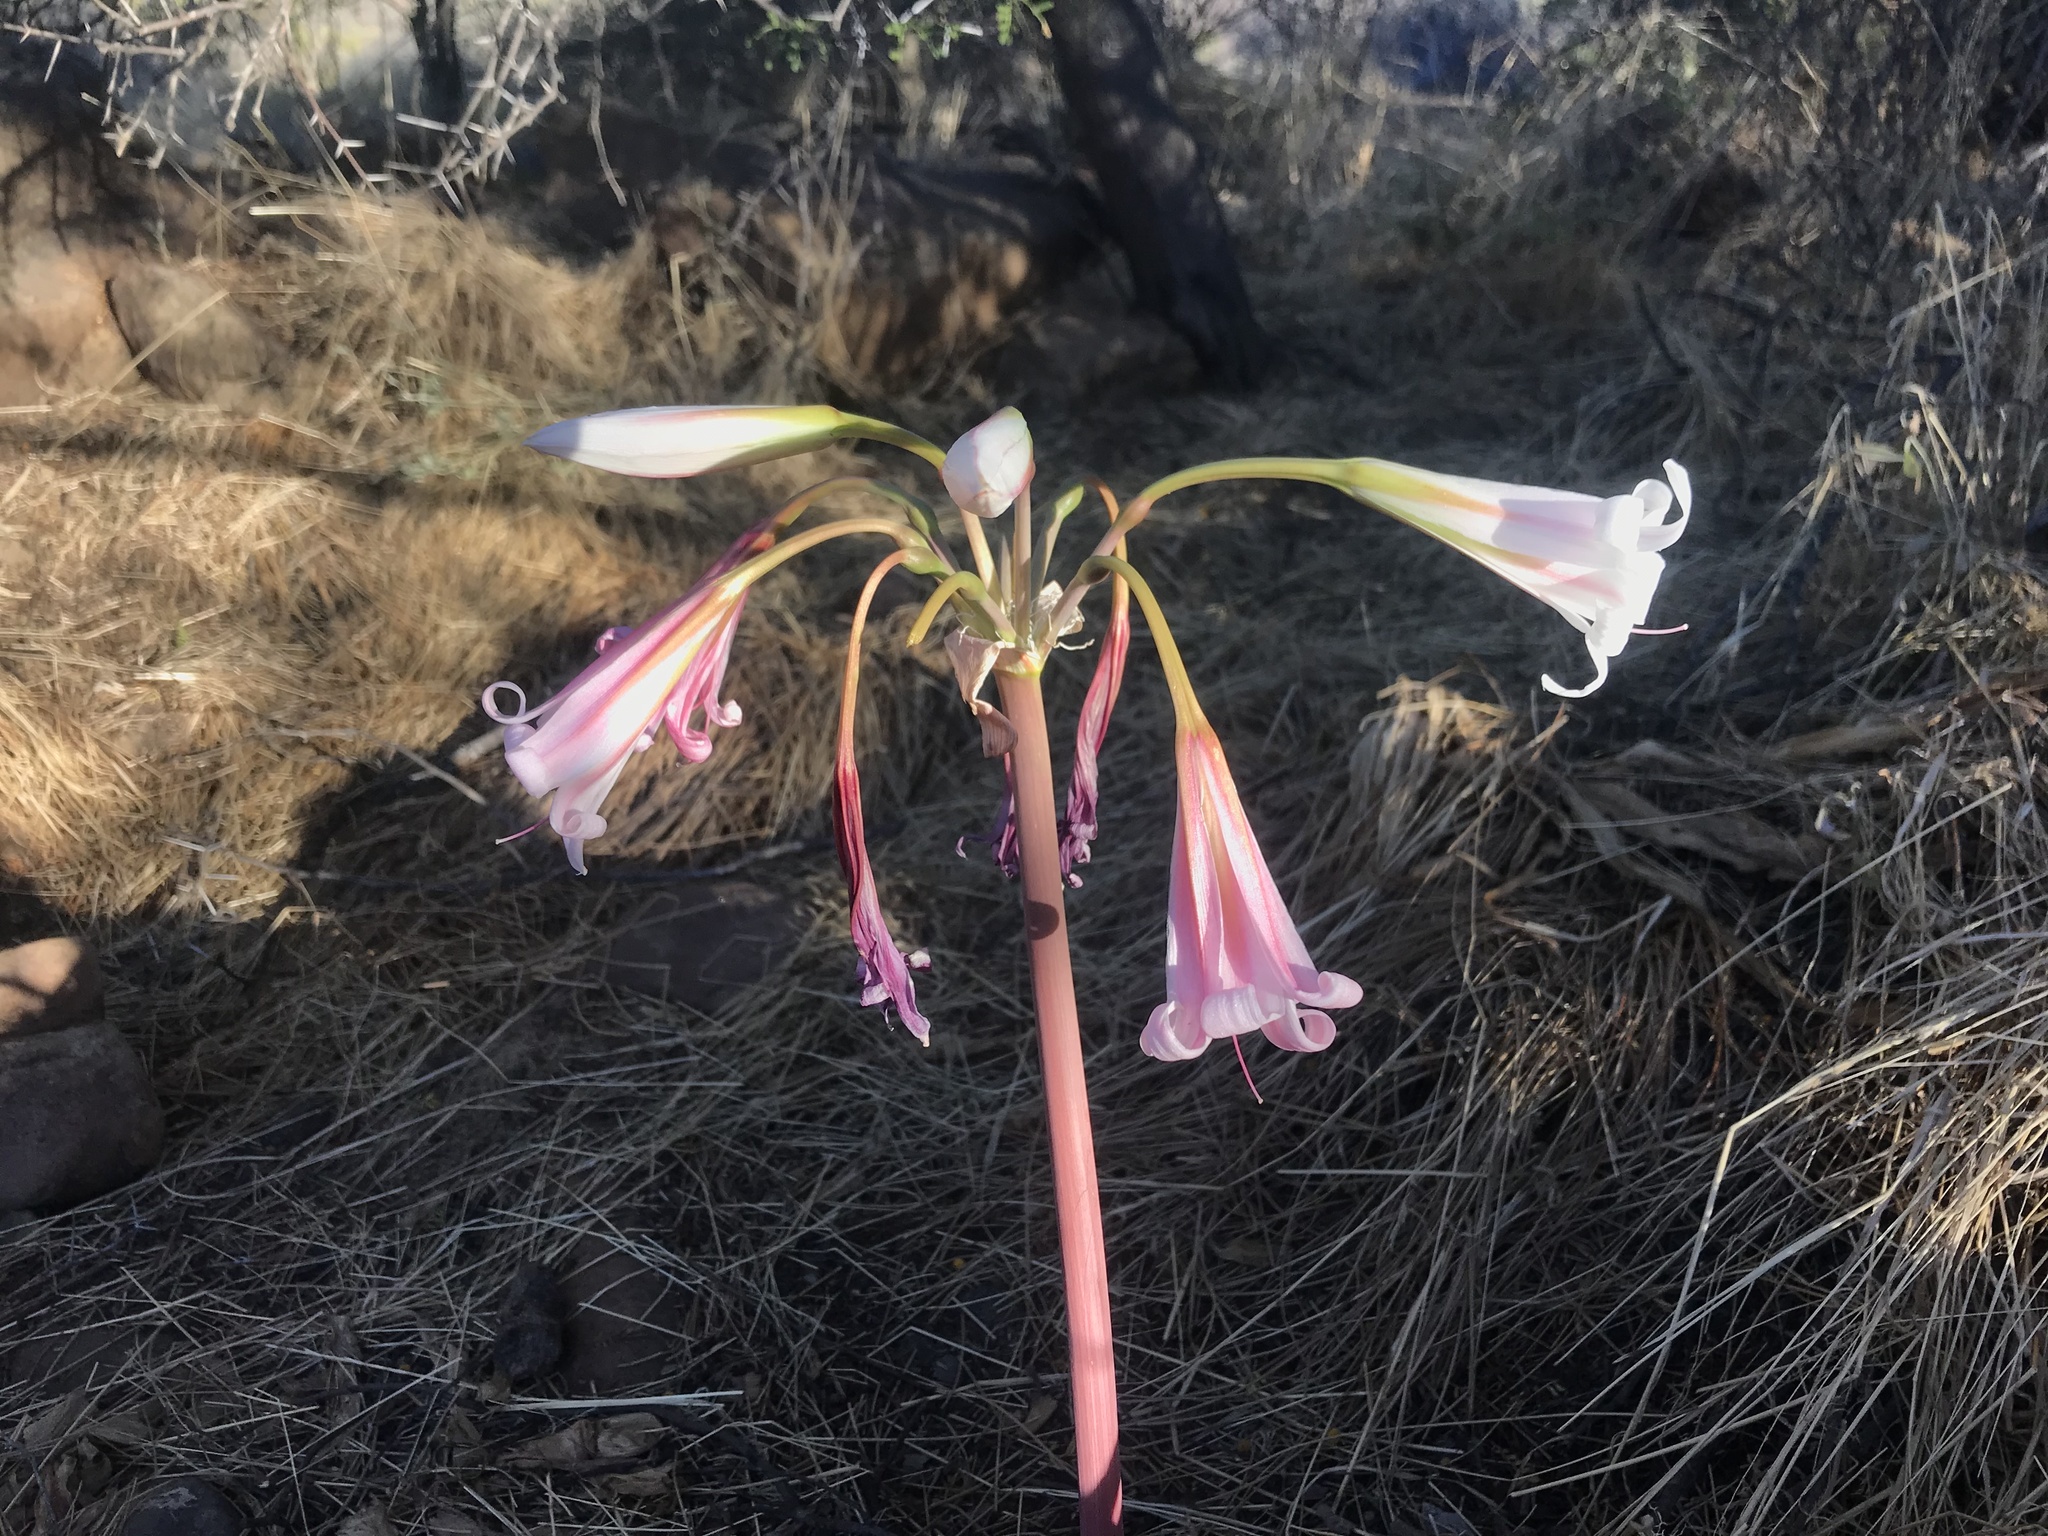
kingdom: Plantae
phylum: Tracheophyta
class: Liliopsida
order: Asparagales
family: Amaryllidaceae
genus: Crinum
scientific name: Crinum variabile
